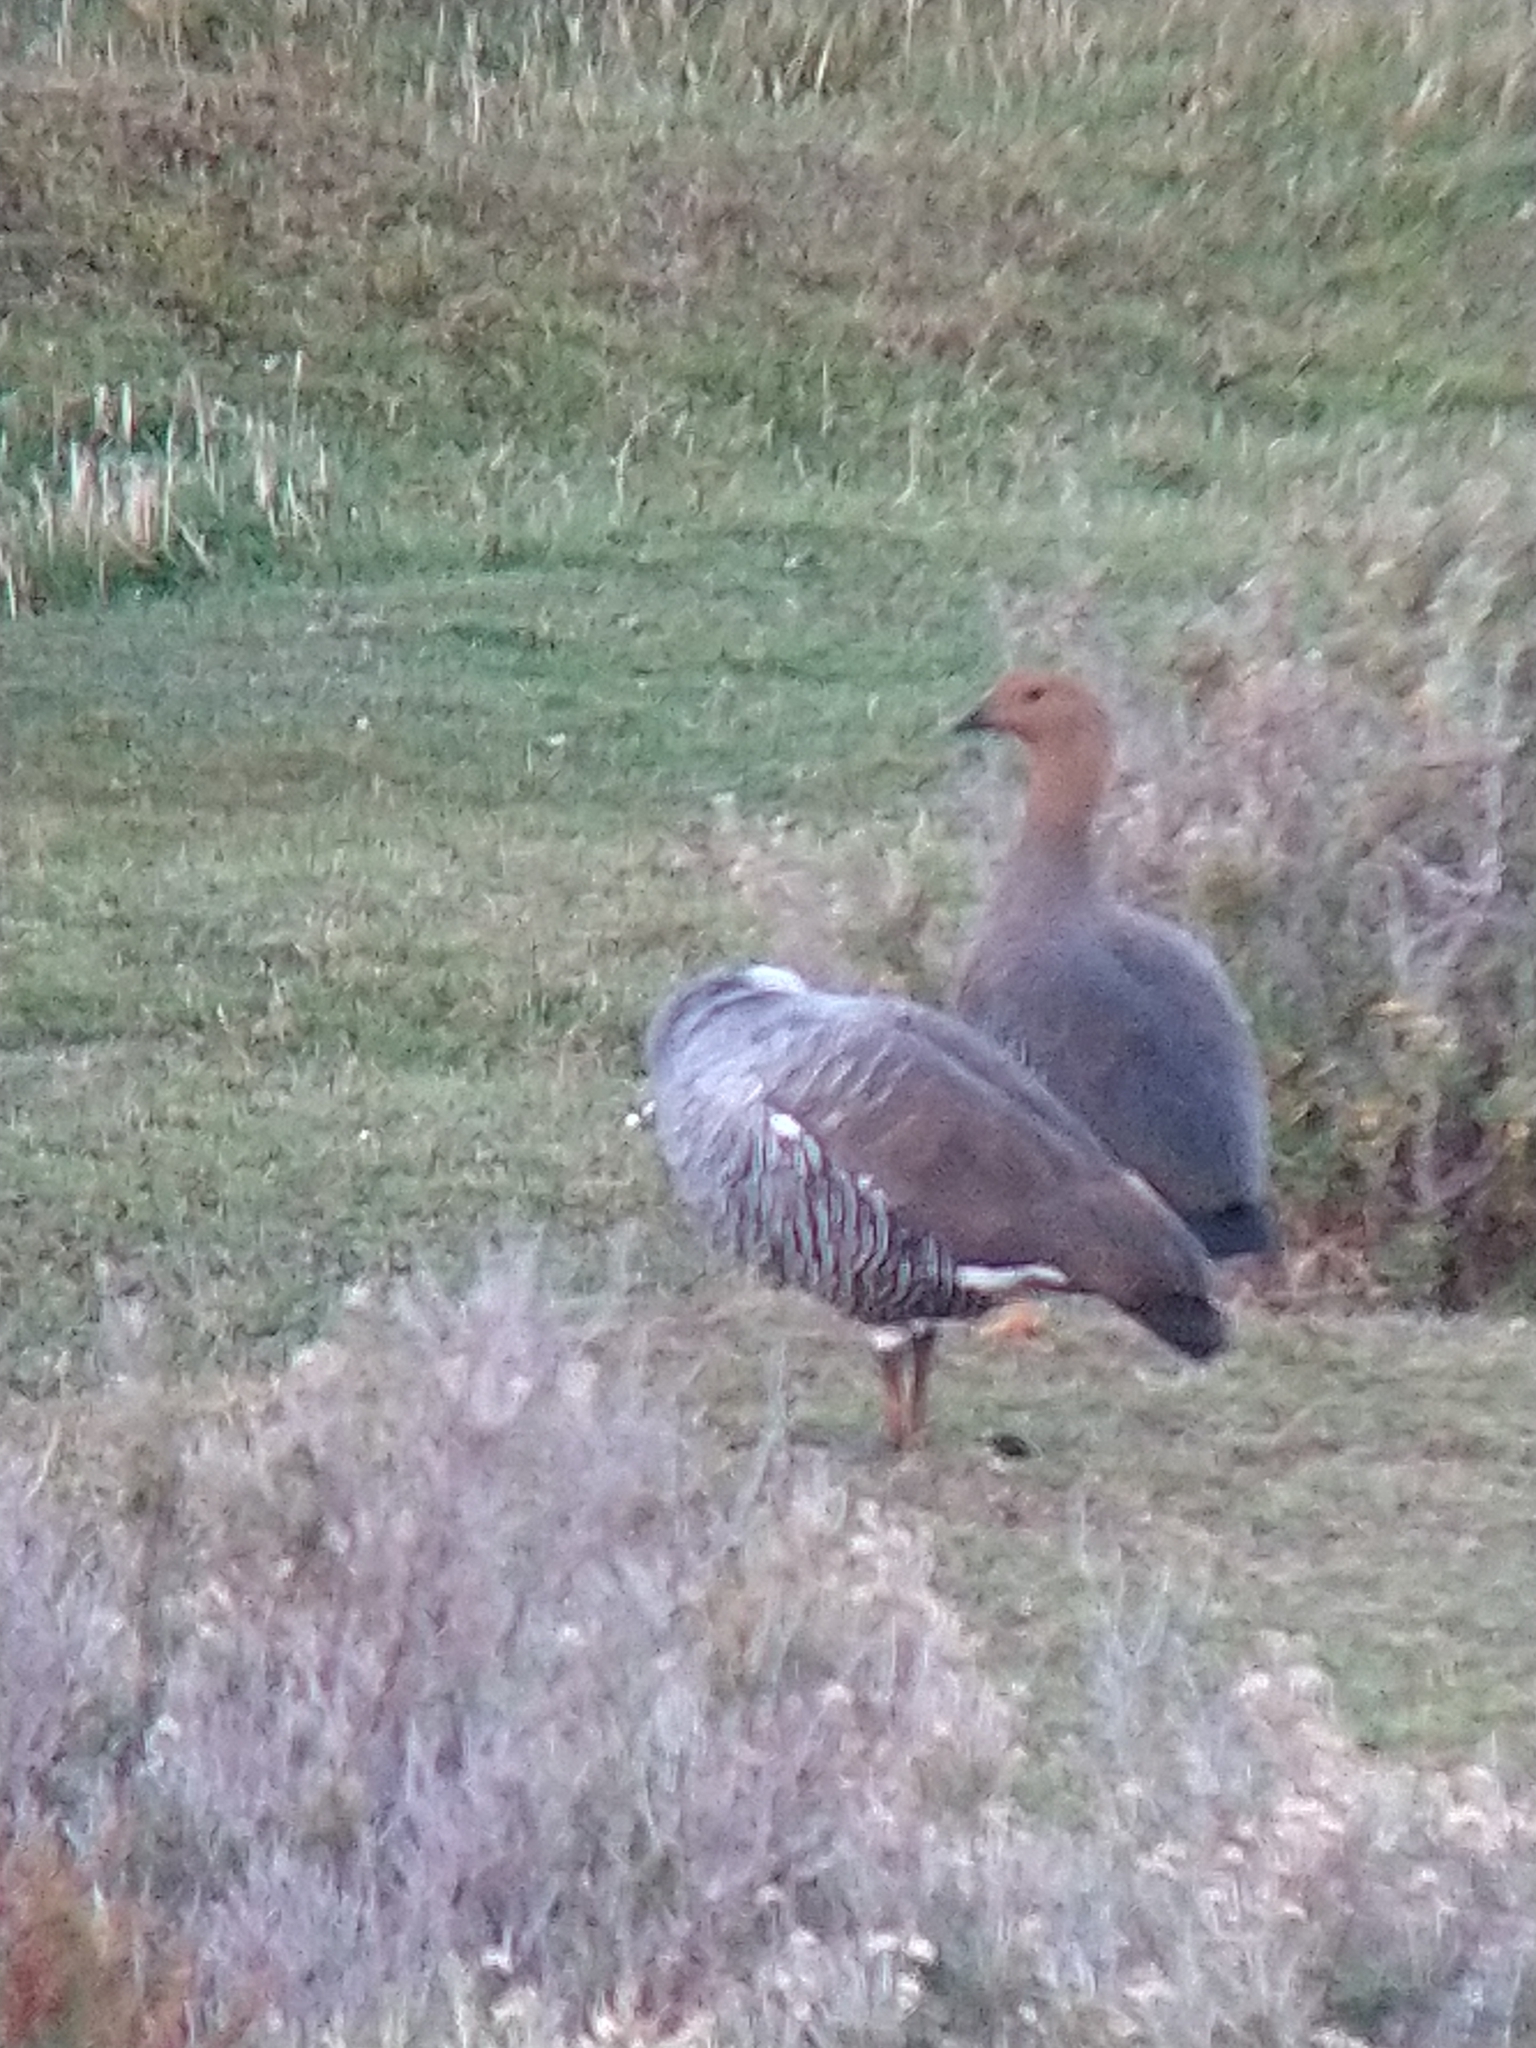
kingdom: Animalia
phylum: Chordata
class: Aves
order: Anseriformes
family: Anatidae
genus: Chloephaga
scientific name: Chloephaga picta
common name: Upland goose
